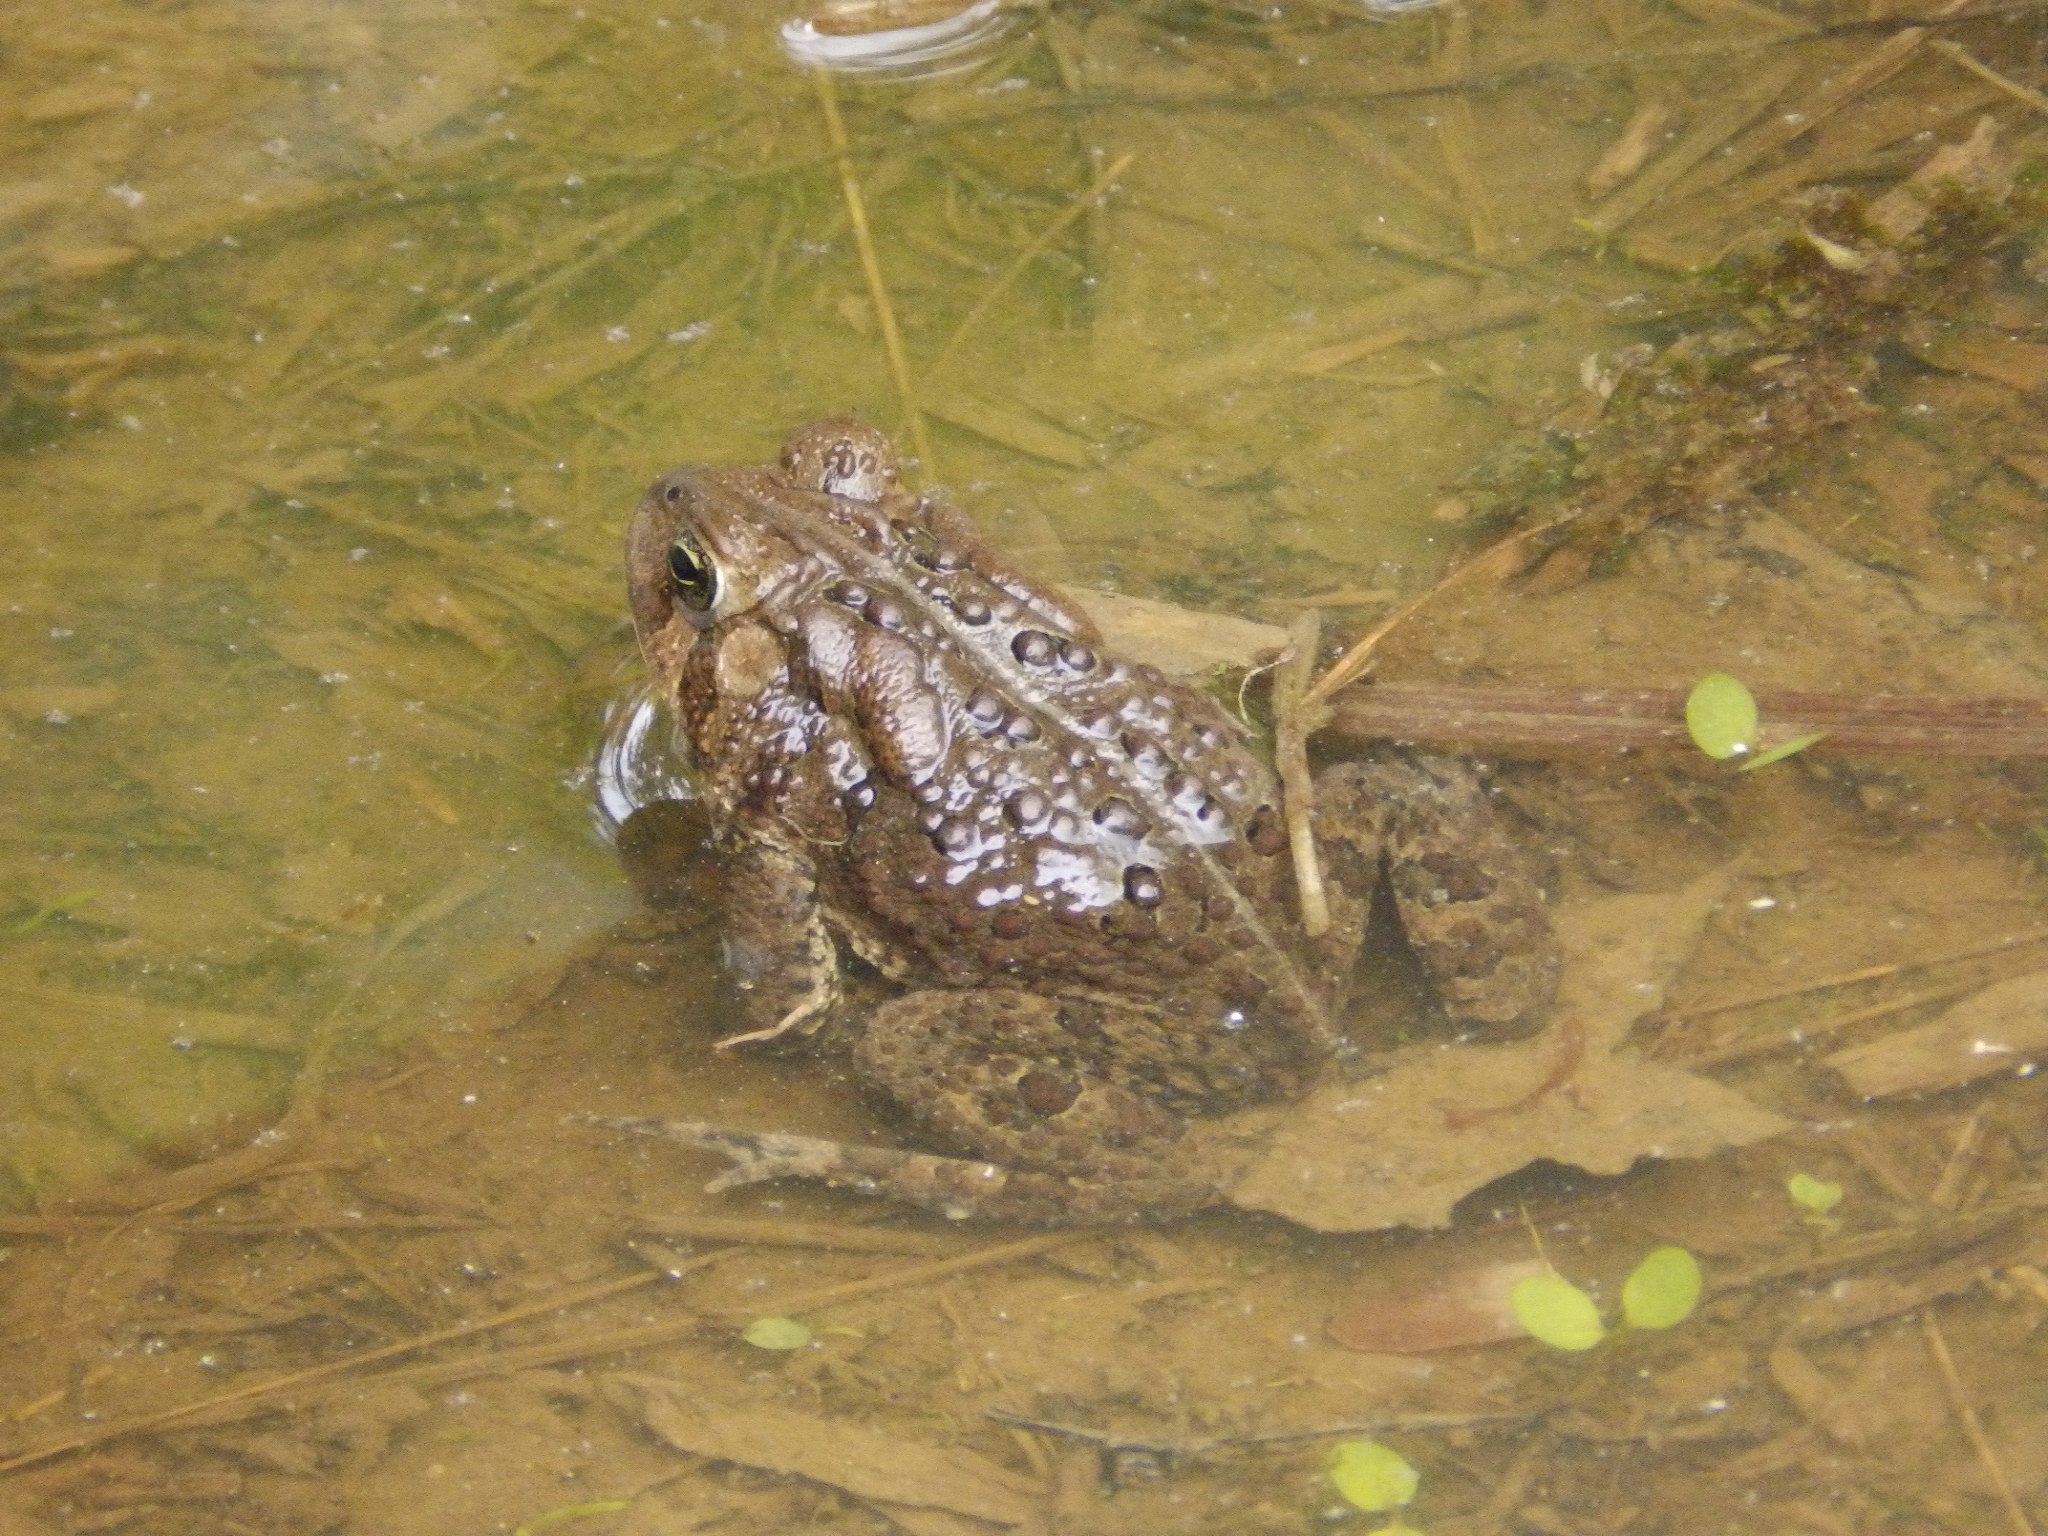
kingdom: Animalia
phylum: Chordata
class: Amphibia
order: Anura
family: Bufonidae
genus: Anaxyrus
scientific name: Anaxyrus americanus
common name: American toad
